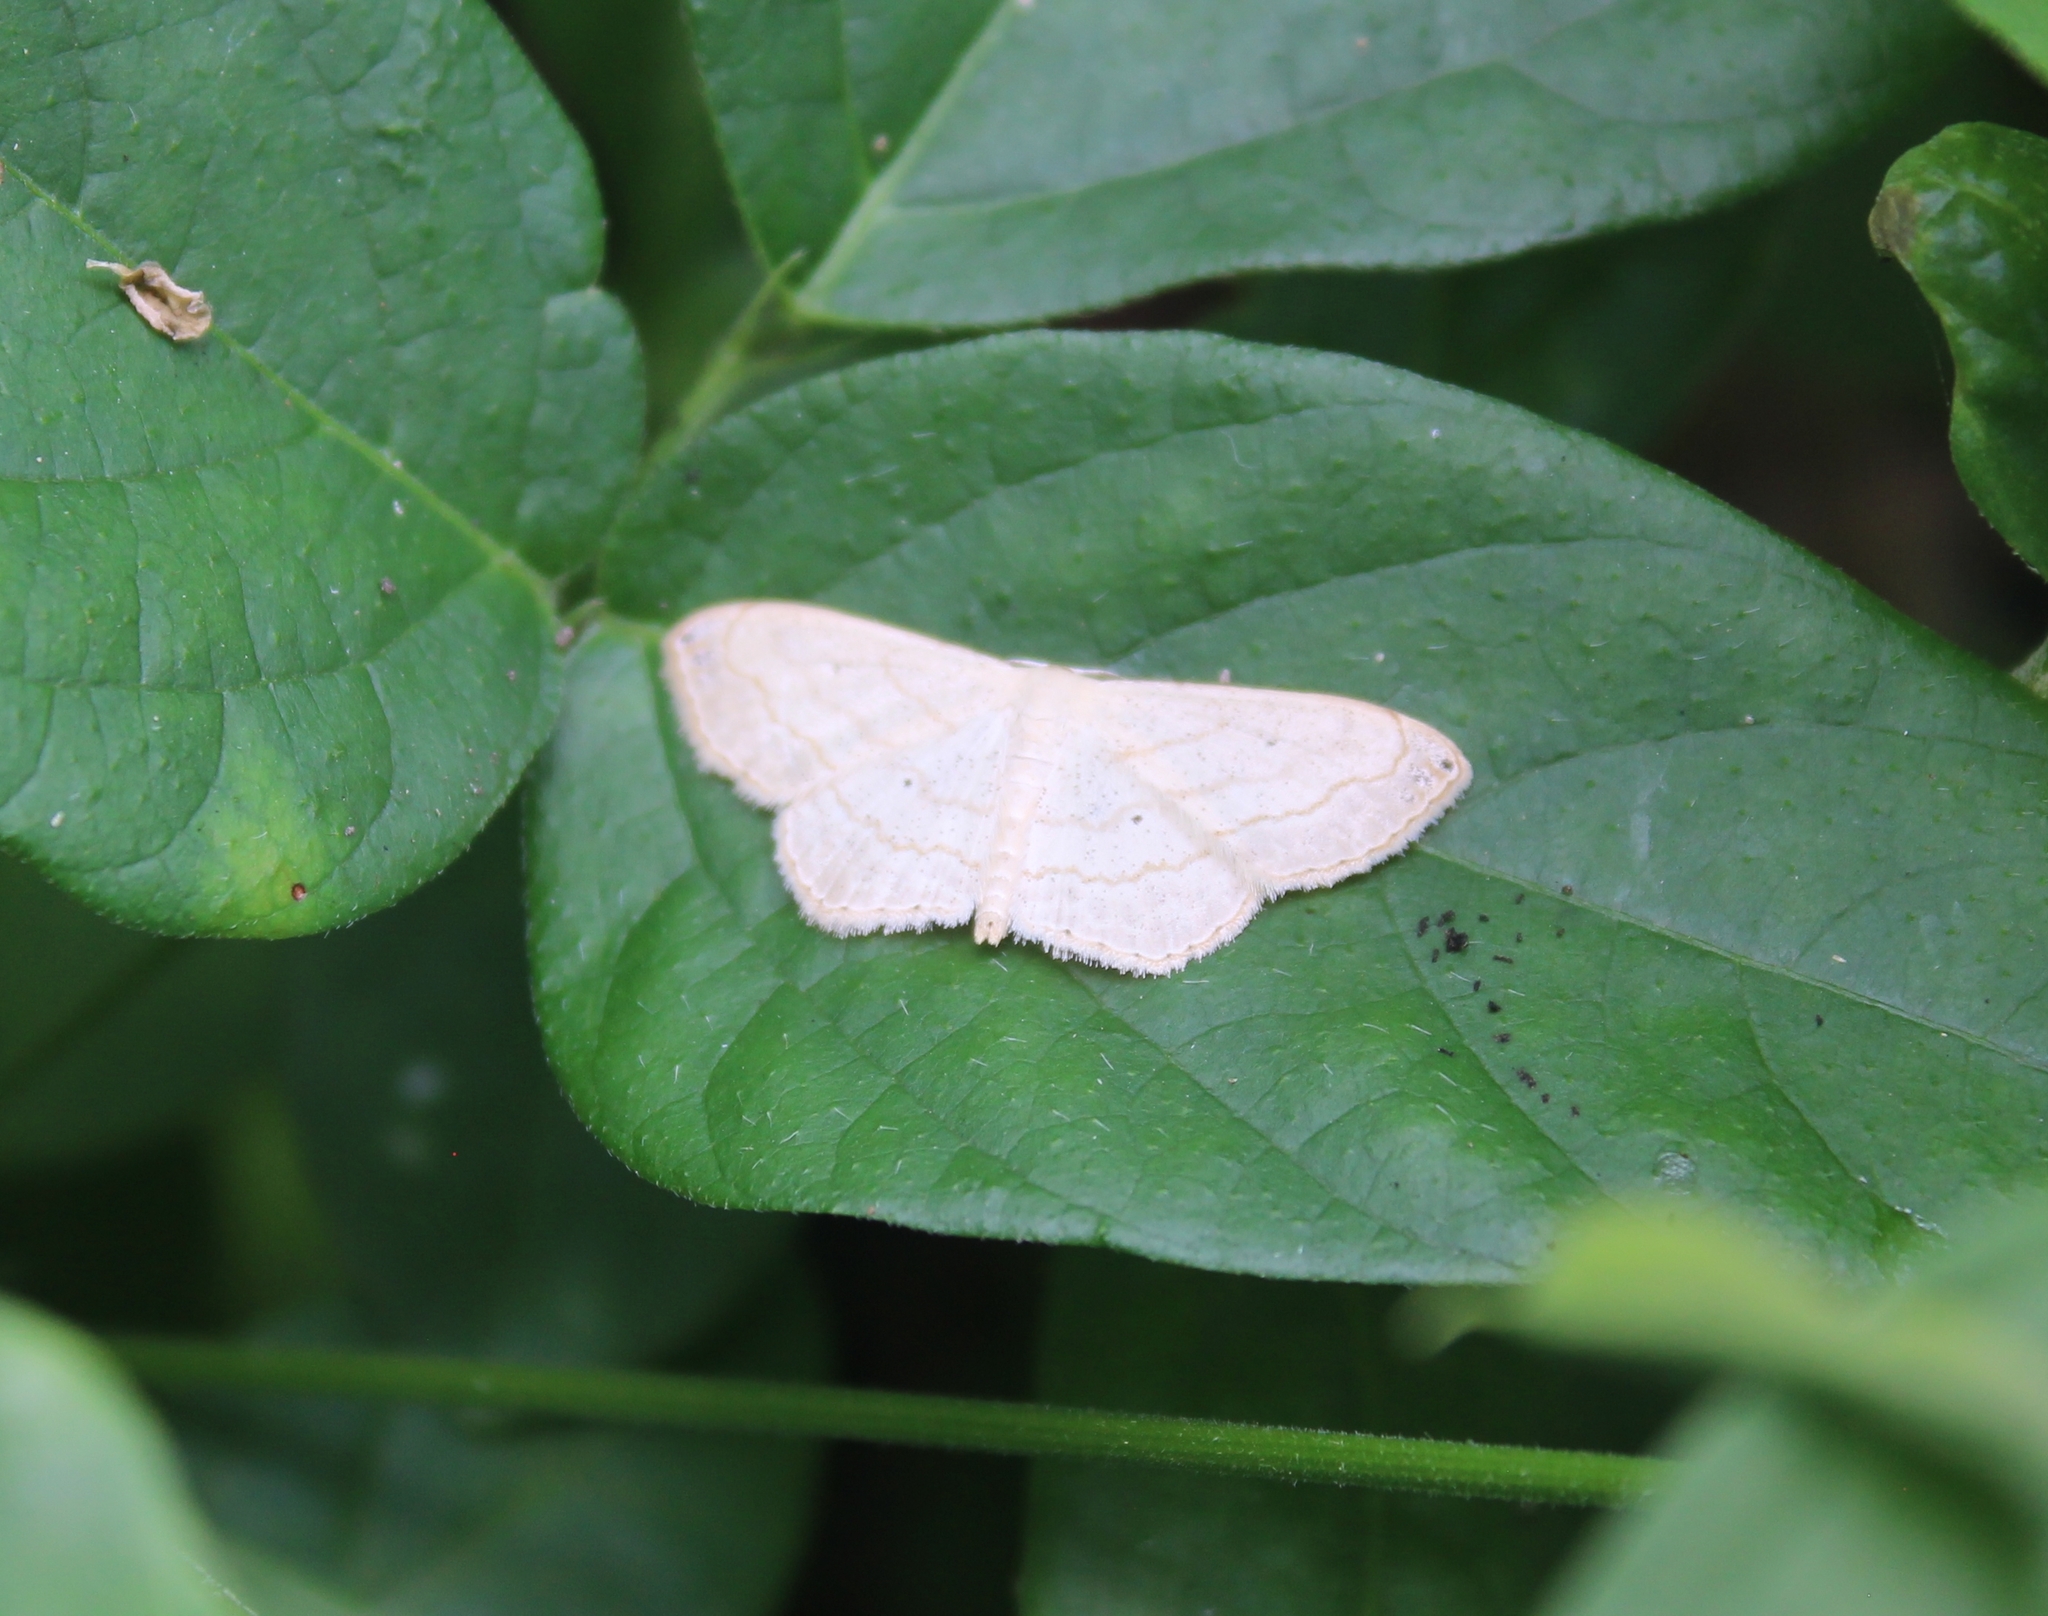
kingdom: Animalia
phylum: Arthropoda
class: Insecta
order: Lepidoptera
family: Geometridae
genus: Scopula
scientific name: Scopula umbilicata
